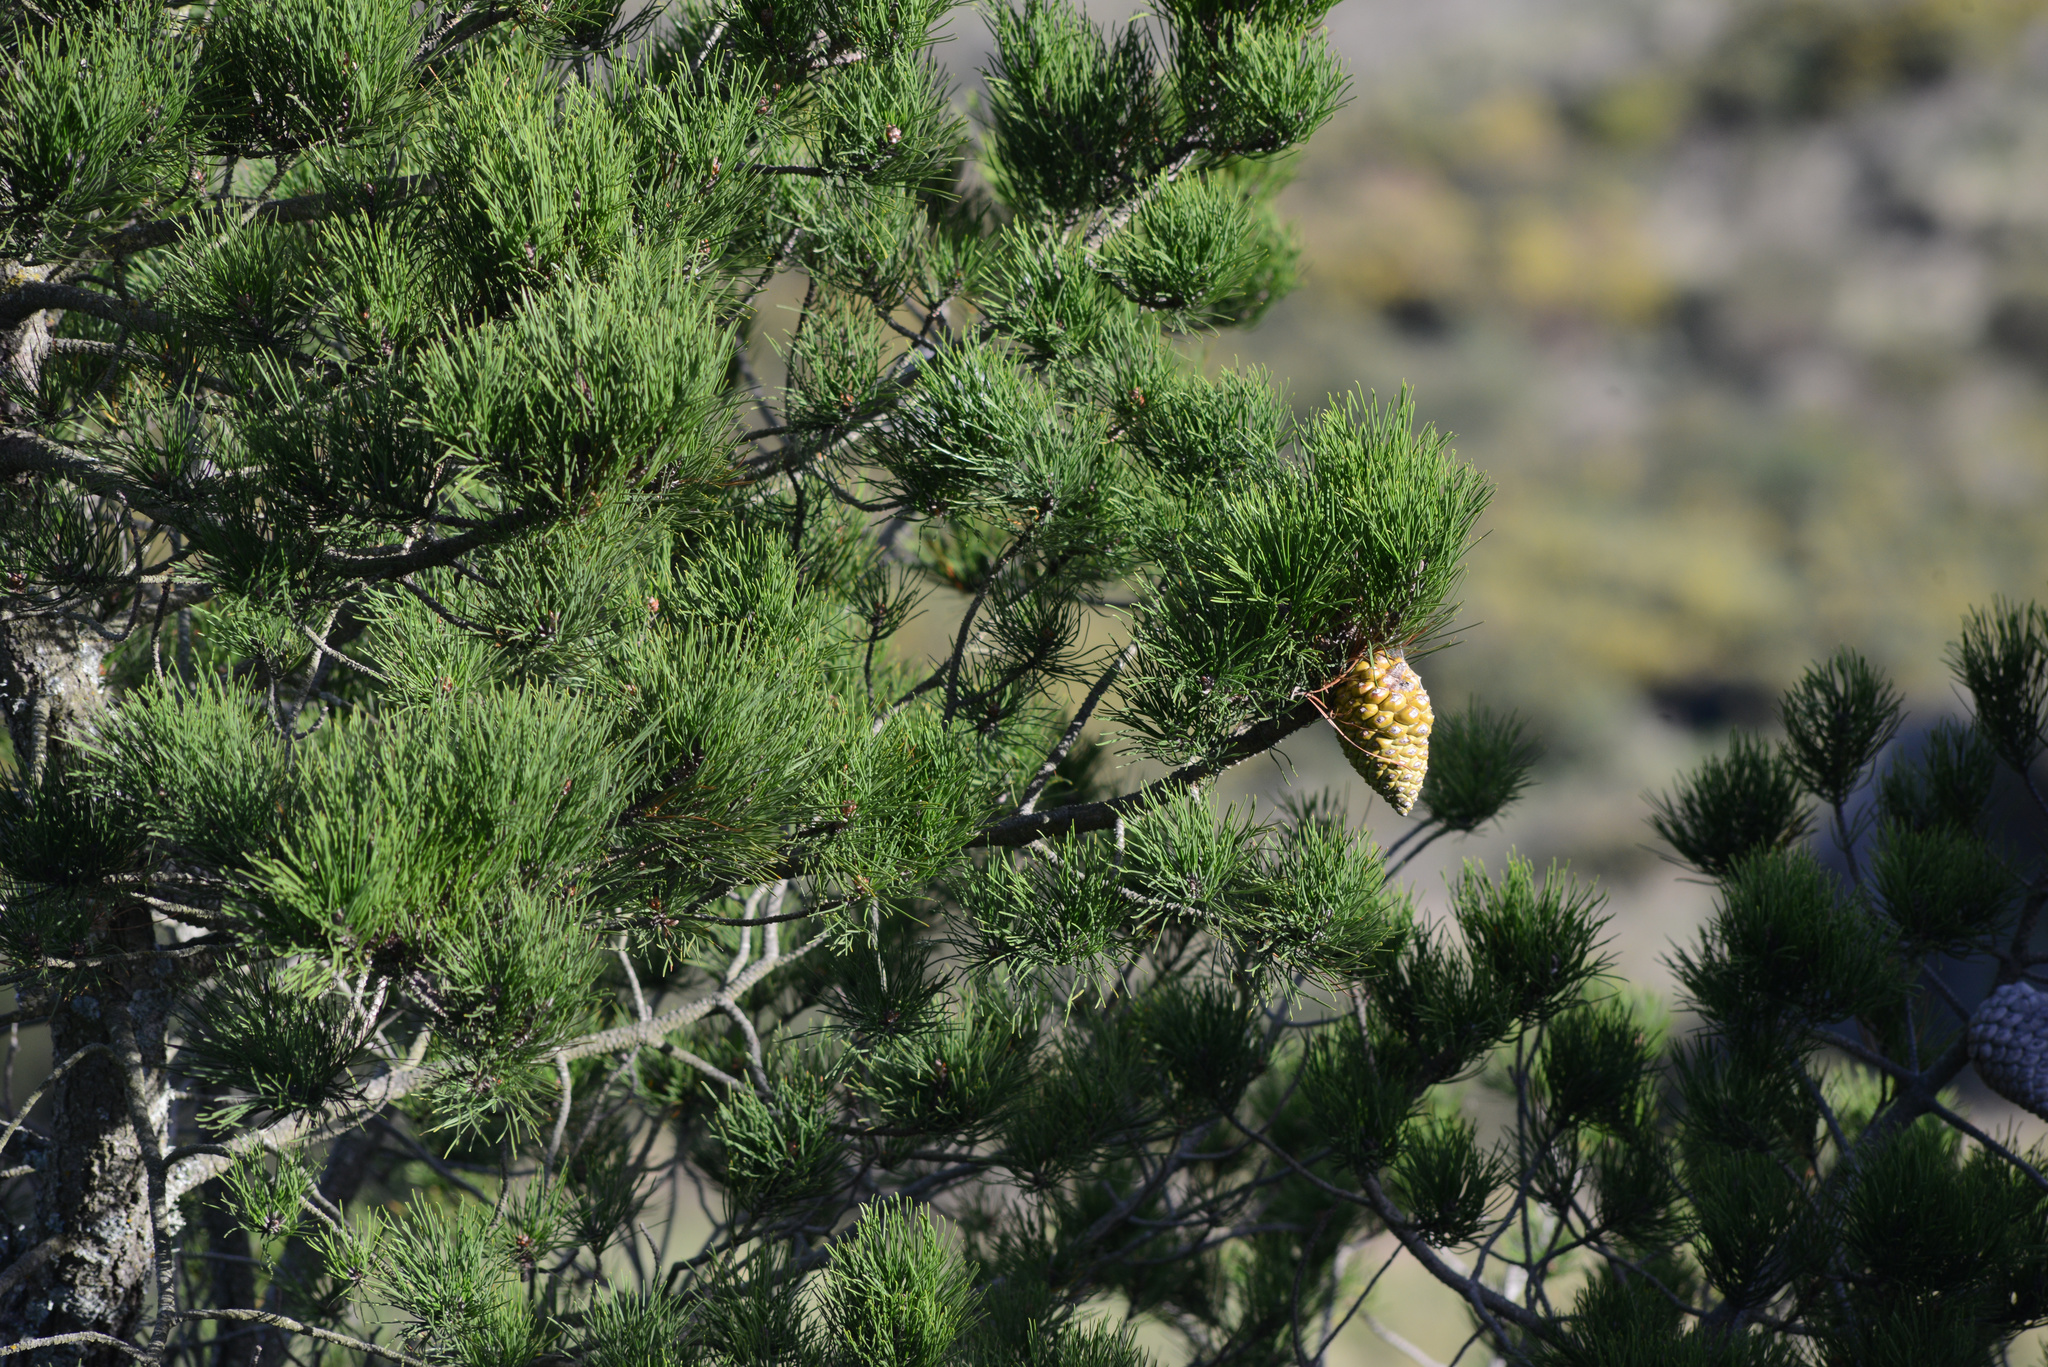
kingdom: Plantae
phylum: Tracheophyta
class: Pinopsida
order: Pinales
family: Pinaceae
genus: Pinus
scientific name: Pinus radiata
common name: Monterey pine
